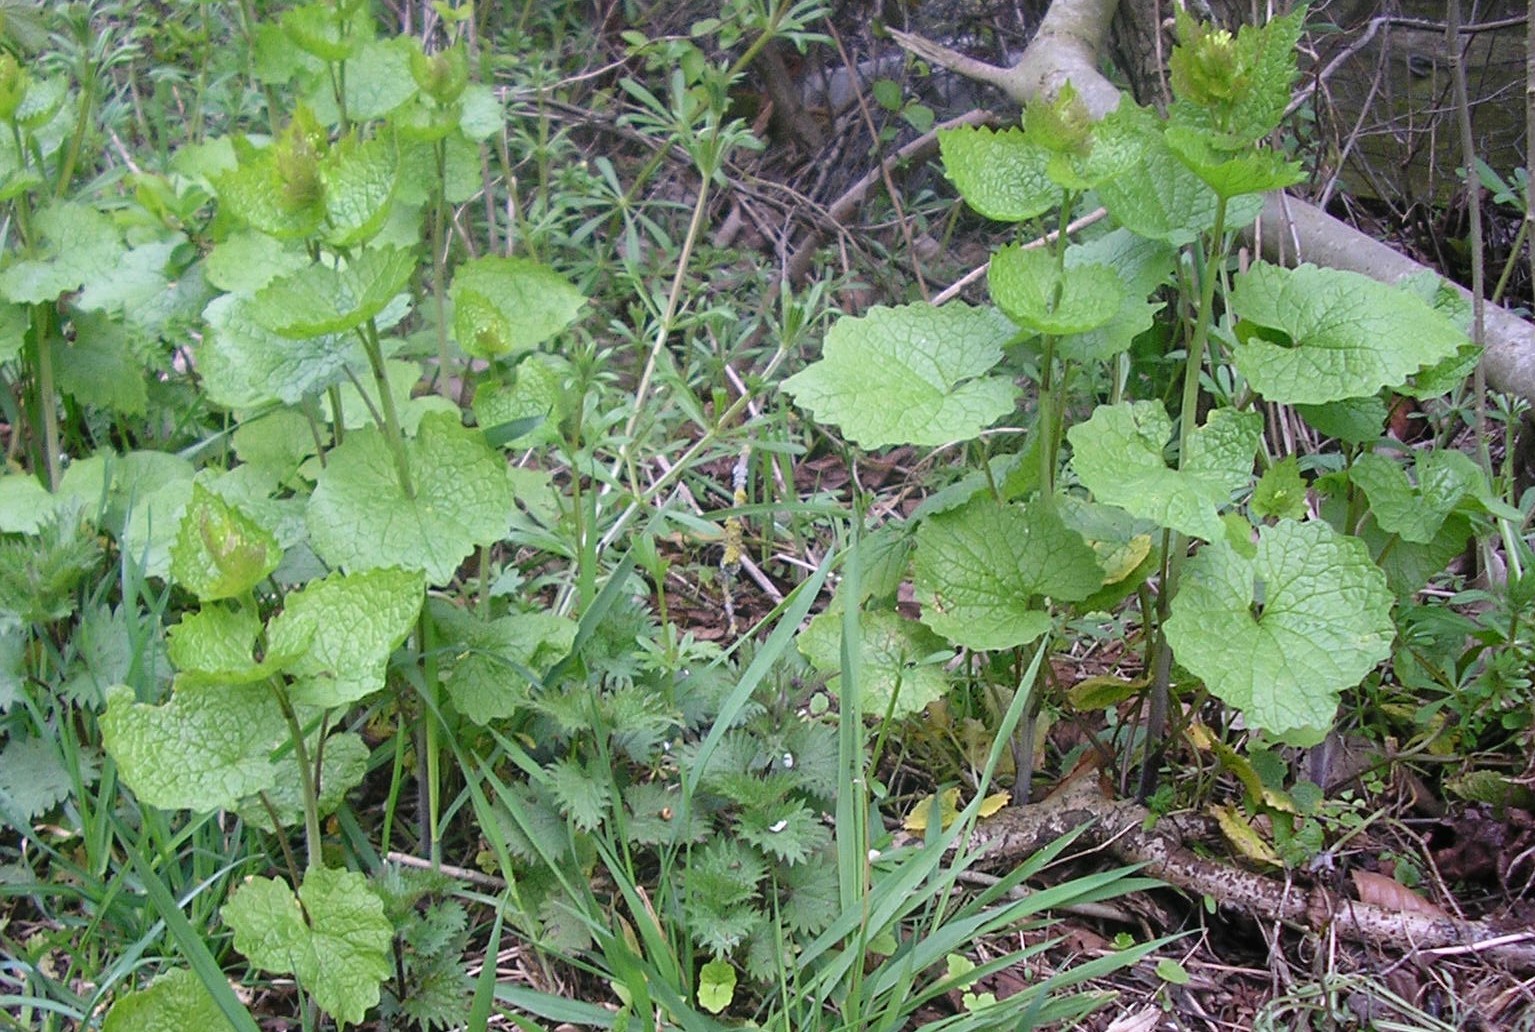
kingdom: Plantae
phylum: Tracheophyta
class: Magnoliopsida
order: Brassicales
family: Brassicaceae
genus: Alliaria
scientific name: Alliaria petiolata
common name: Garlic mustard
